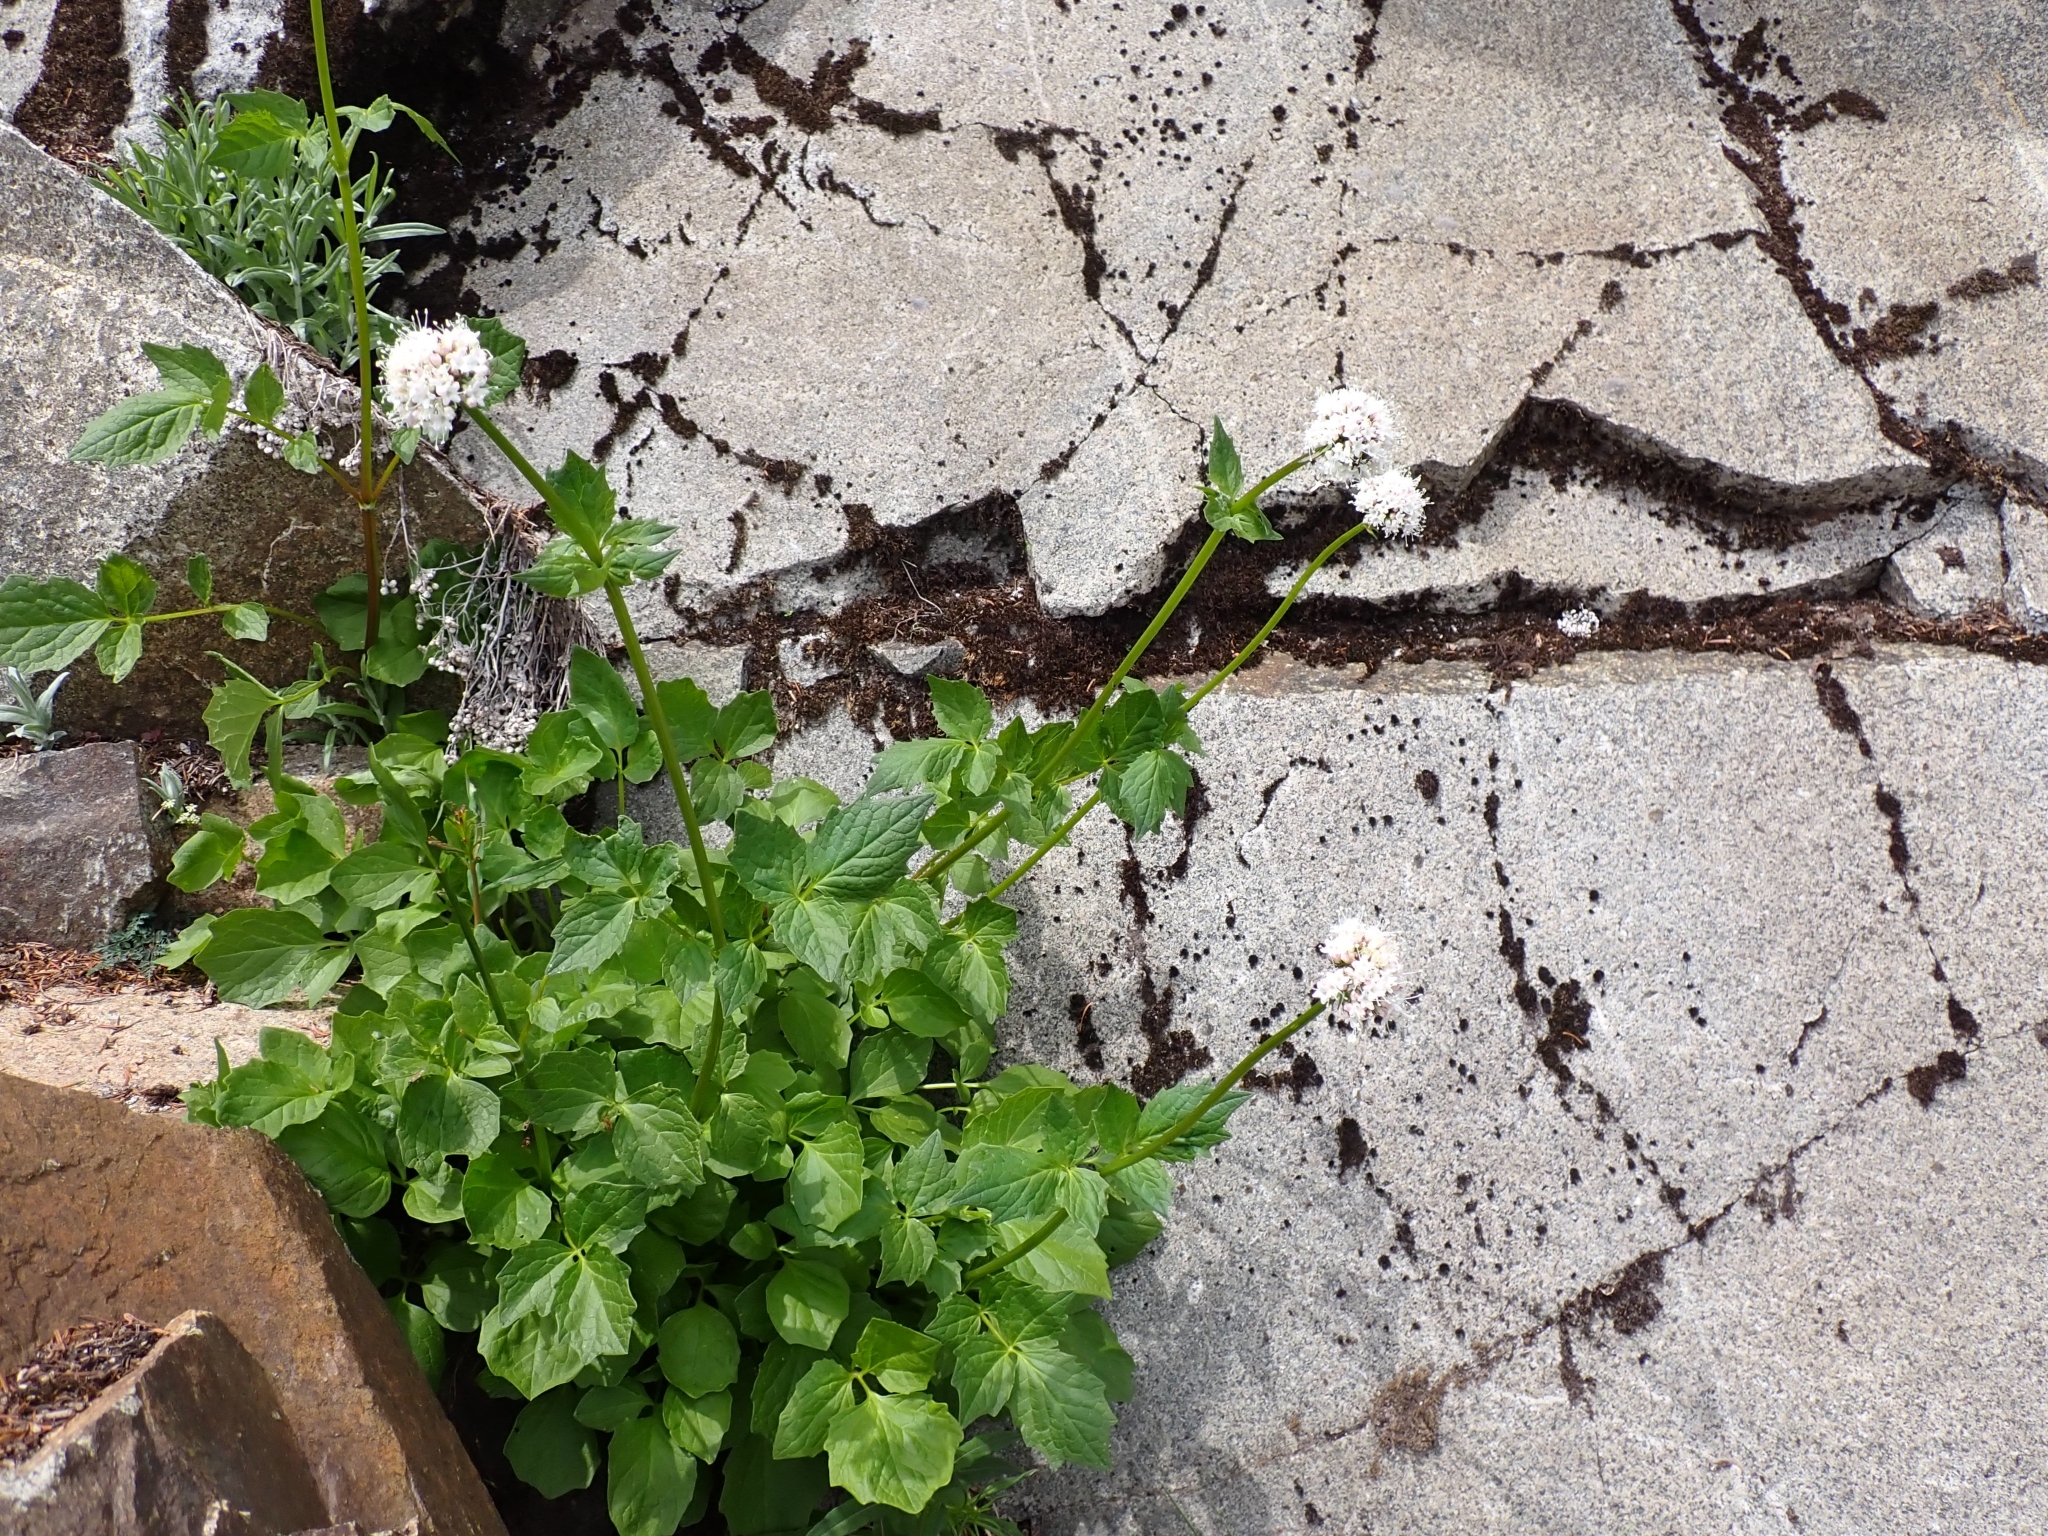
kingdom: Plantae
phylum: Tracheophyta
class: Magnoliopsida
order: Dipsacales
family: Caprifoliaceae
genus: Valeriana
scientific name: Valeriana sitchensis
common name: Pacific valerian
